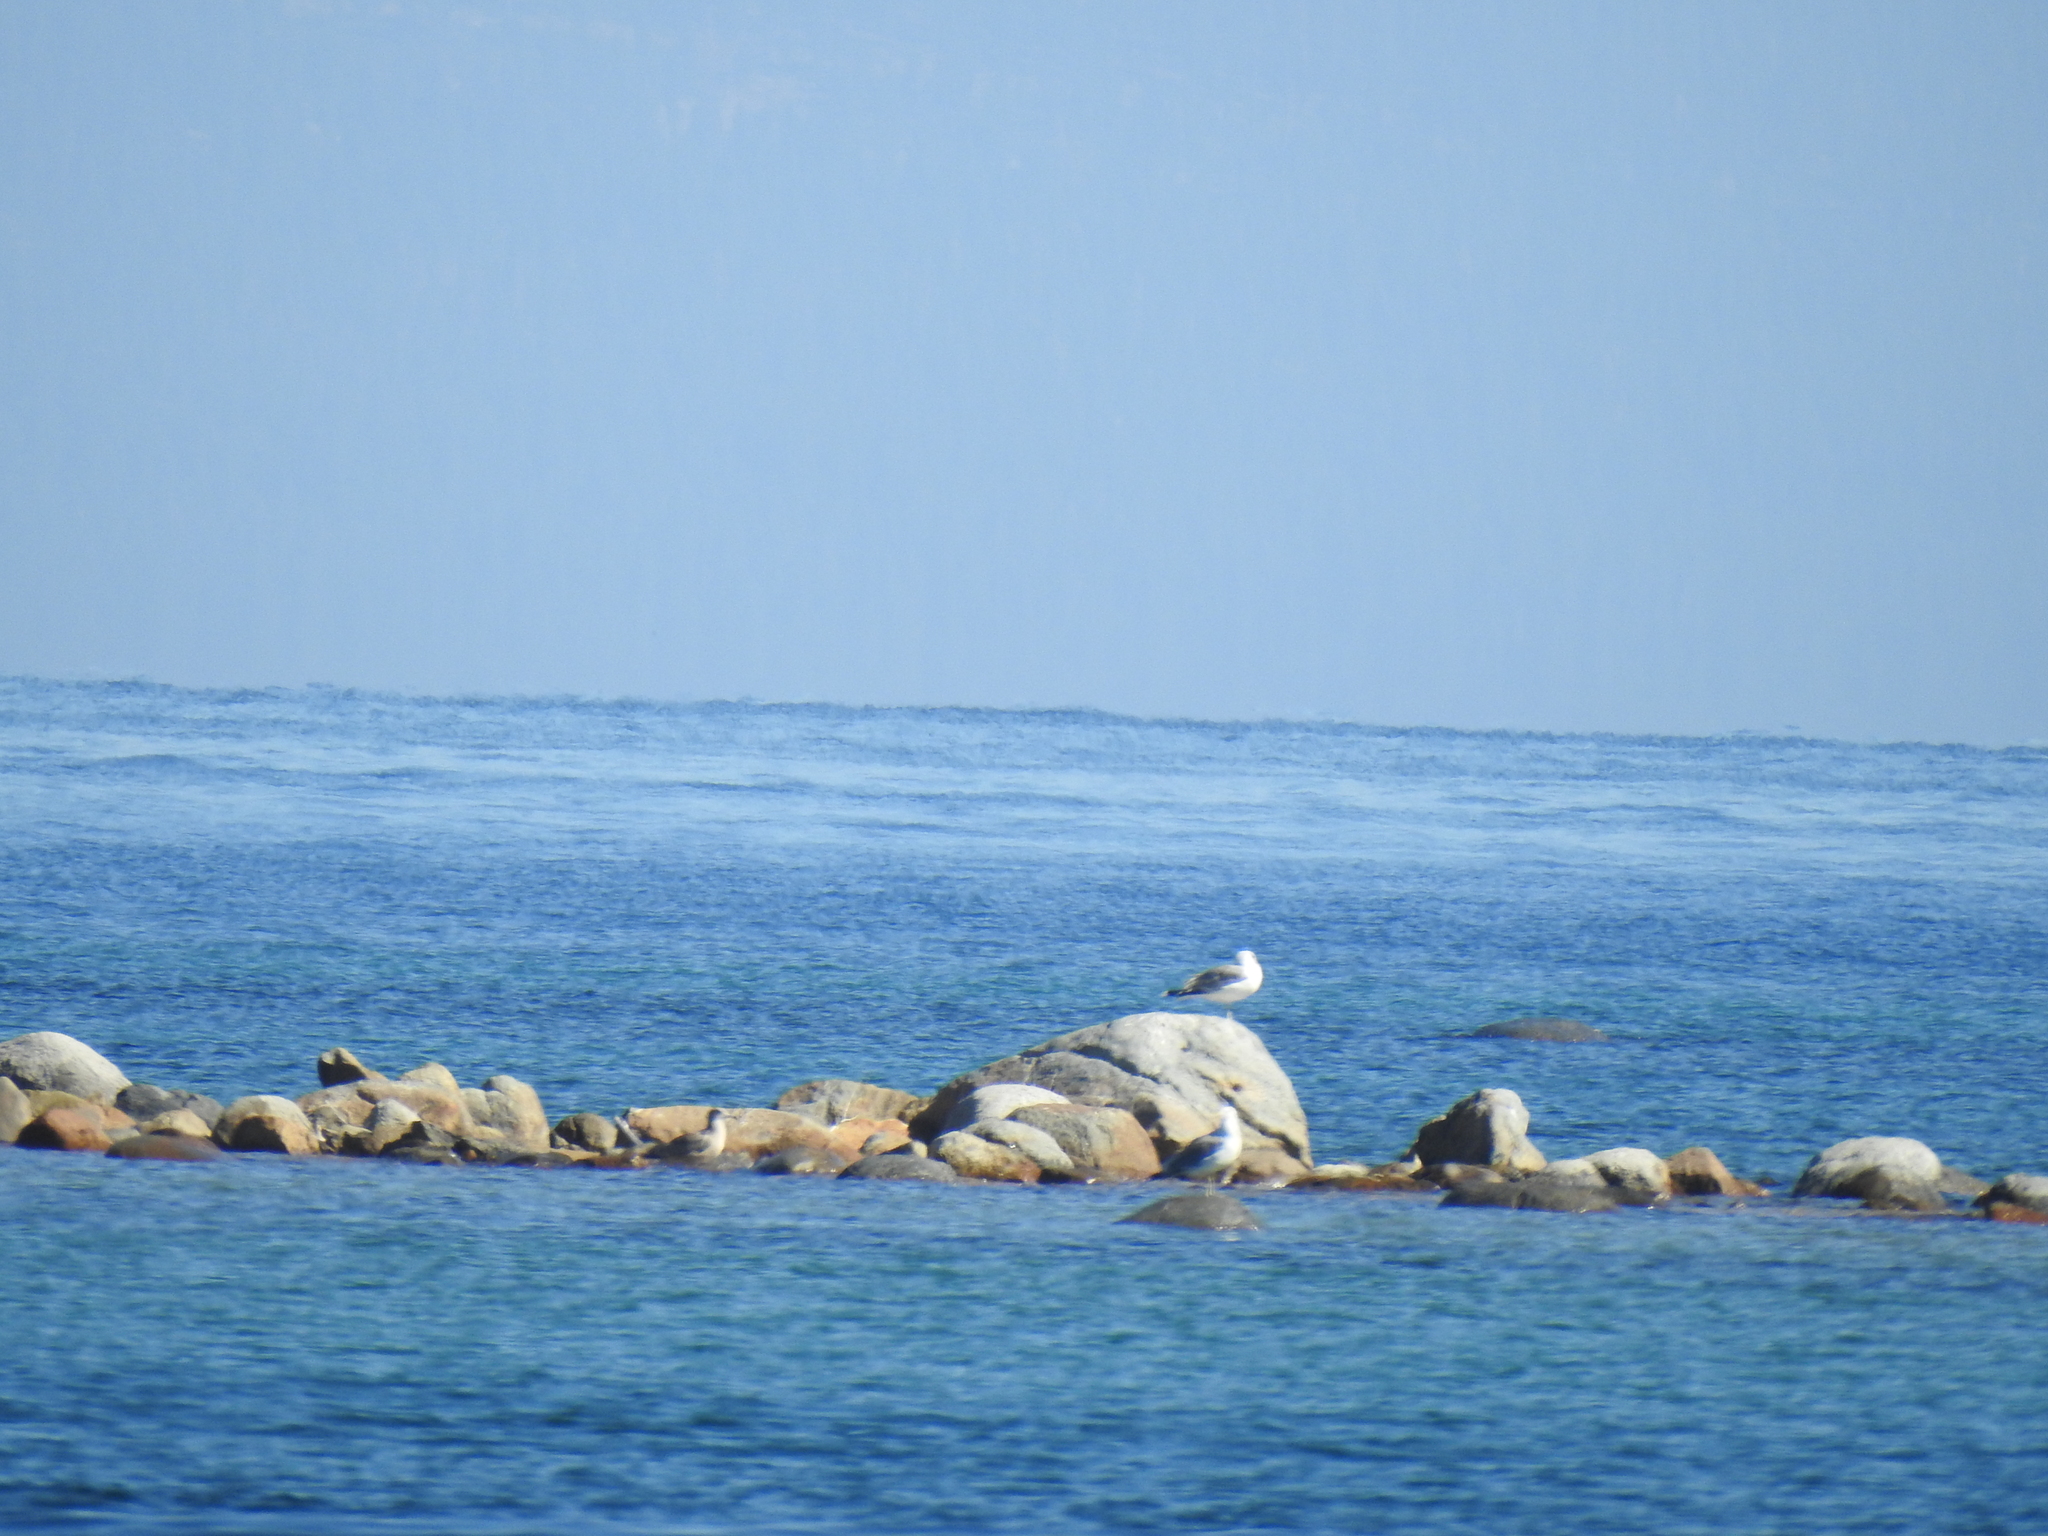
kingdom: Animalia
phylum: Chordata
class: Aves
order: Charadriiformes
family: Laridae
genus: Larus
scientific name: Larus californicus
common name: California gull
